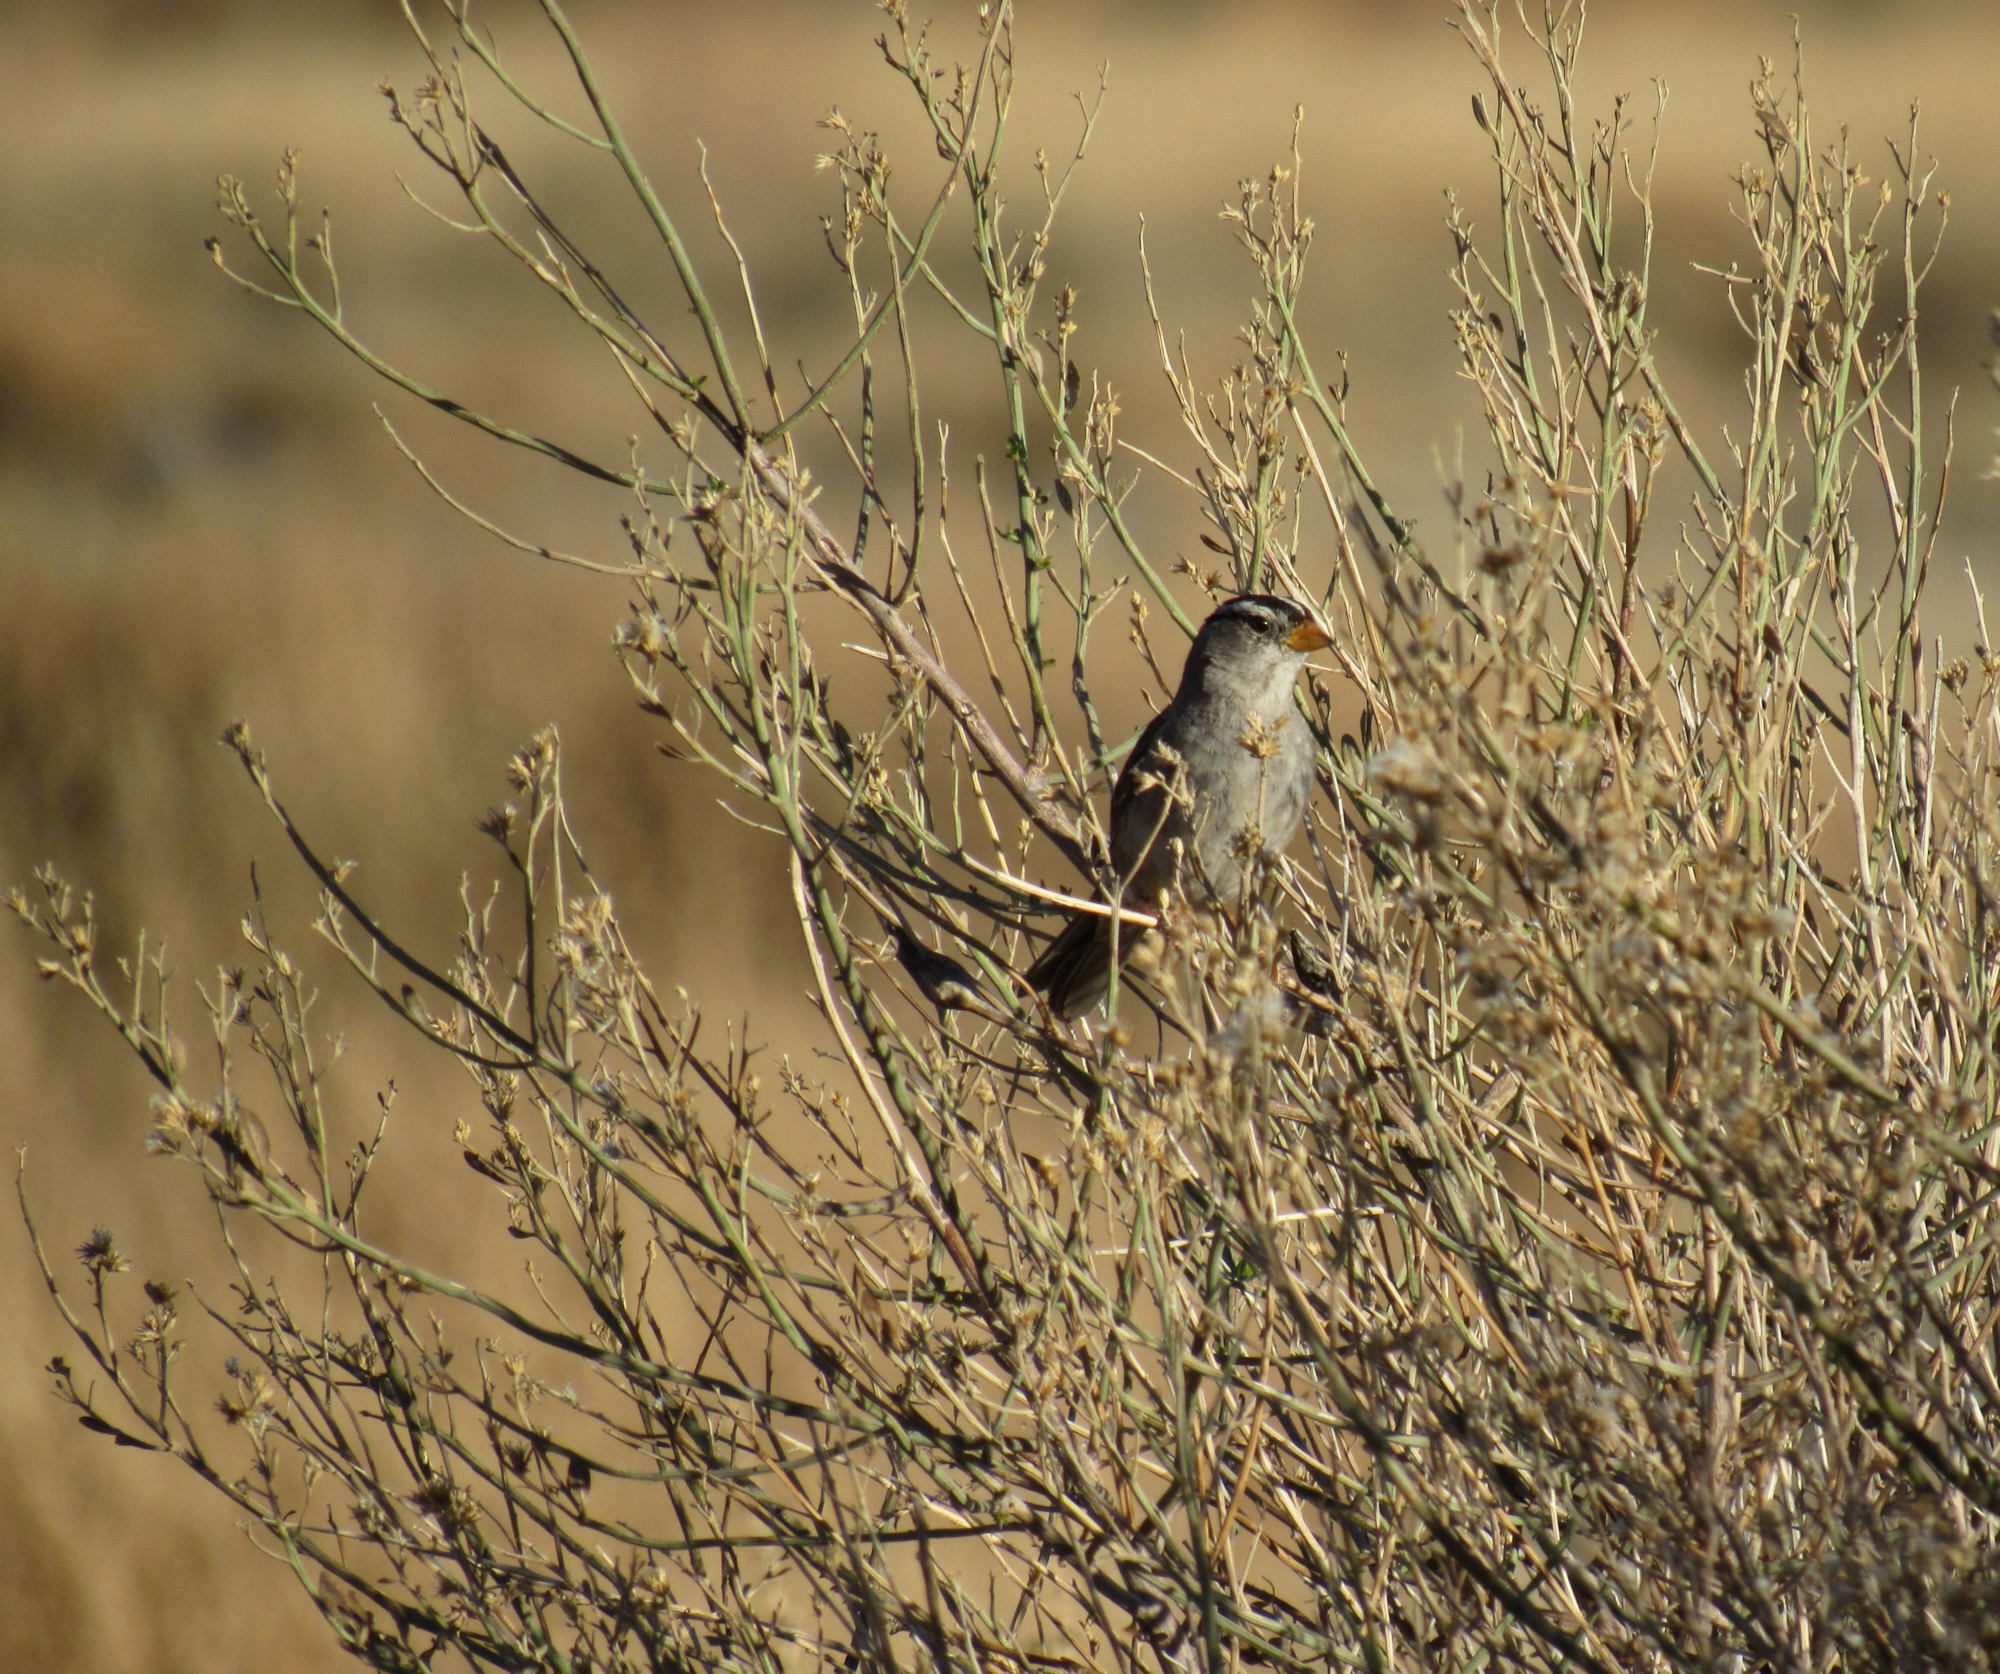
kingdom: Animalia
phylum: Chordata
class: Aves
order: Passeriformes
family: Passerellidae
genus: Zonotrichia
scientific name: Zonotrichia leucophrys
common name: White-crowned sparrow
